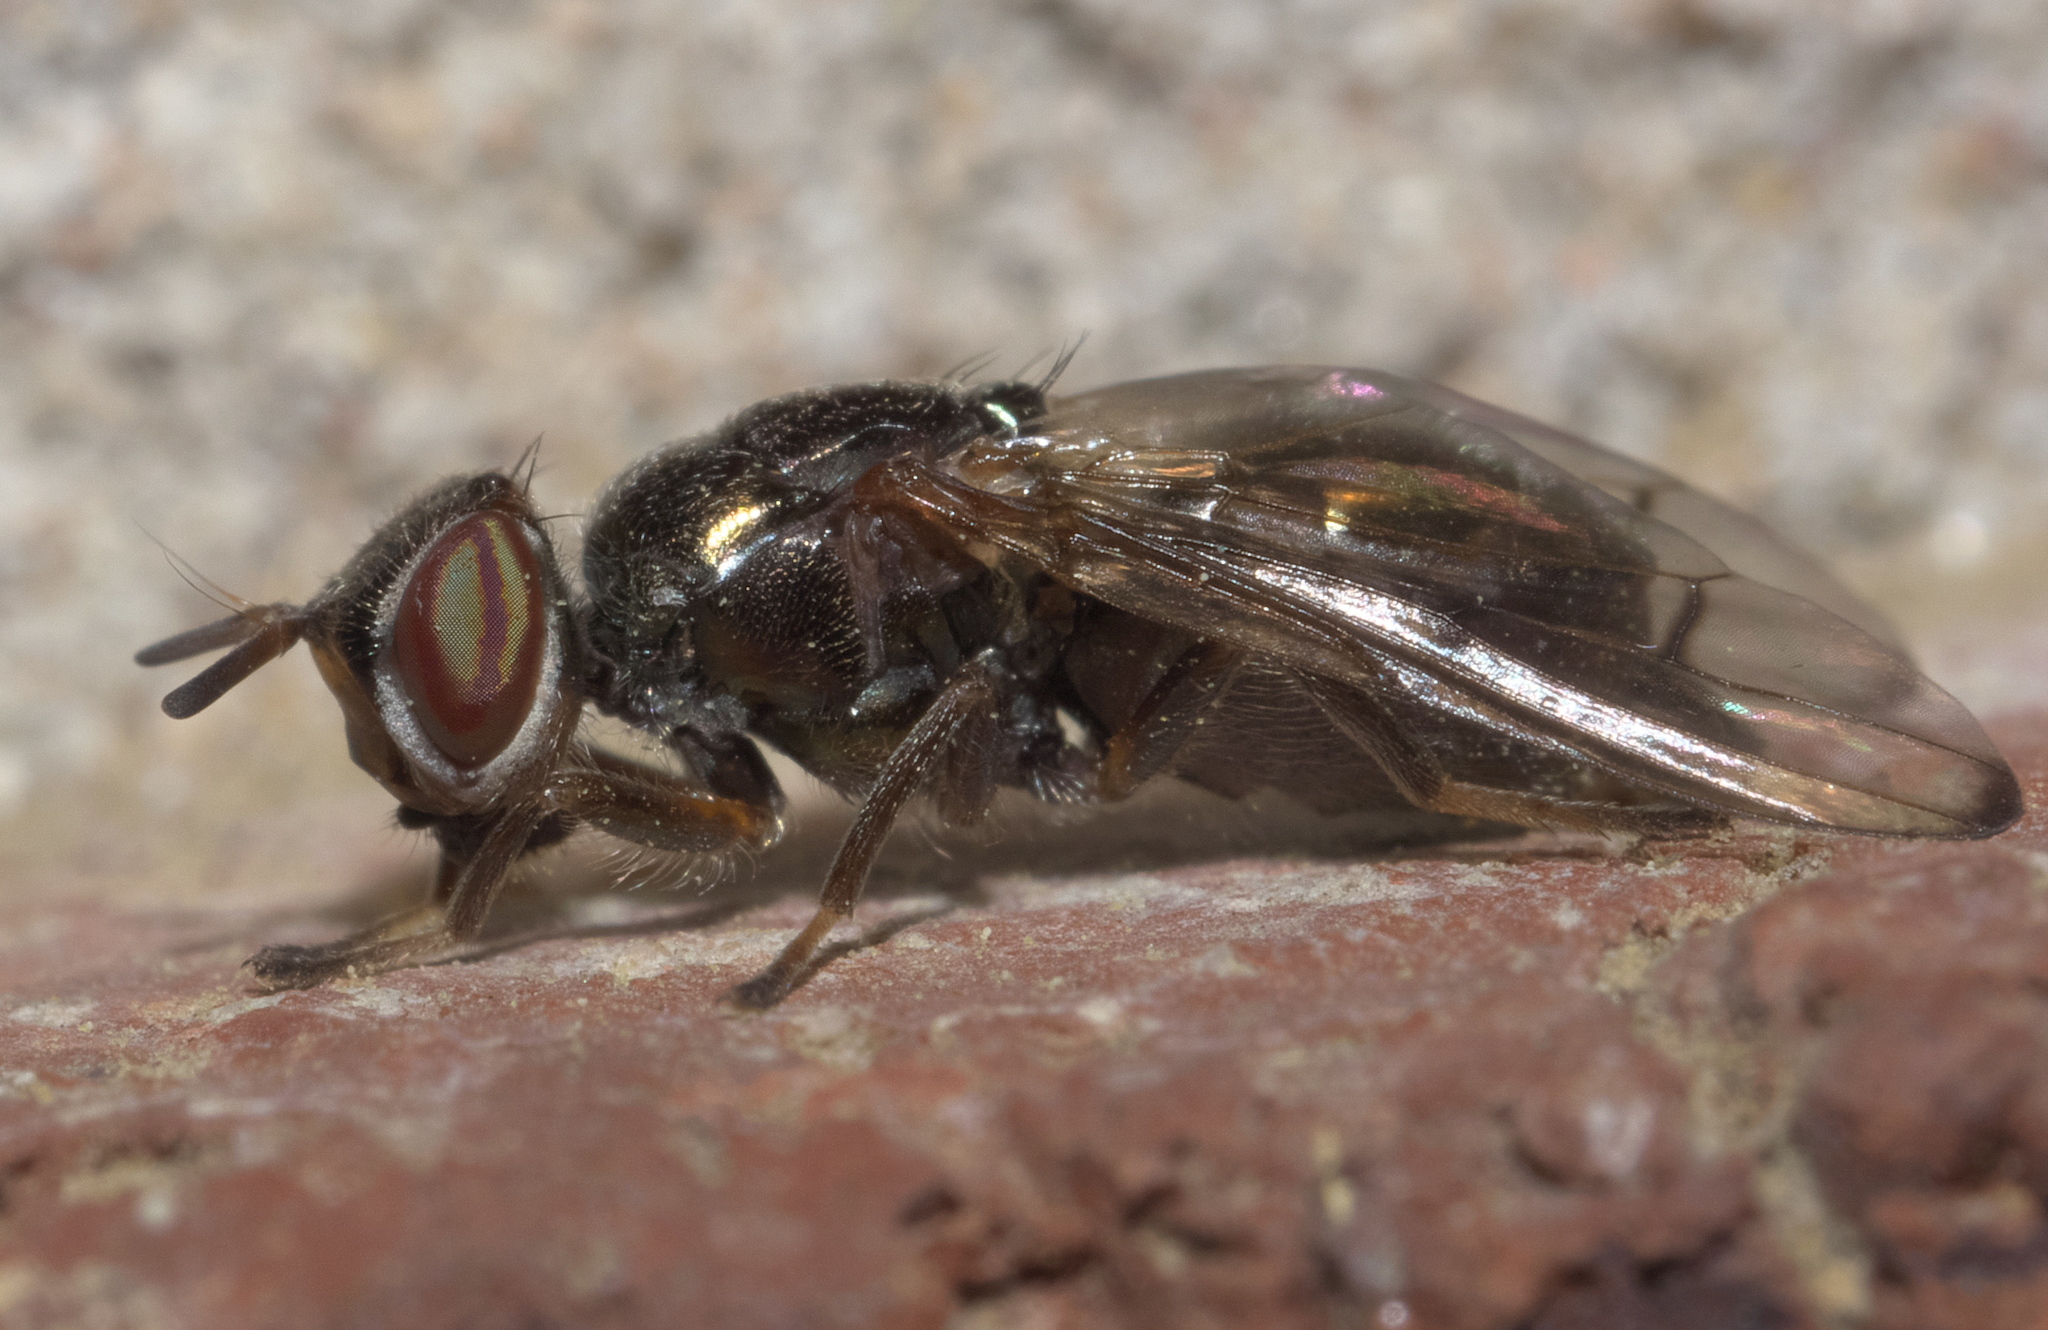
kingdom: Animalia
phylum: Arthropoda
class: Insecta
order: Diptera
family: Platystomatidae
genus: Senopterina
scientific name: Senopterina foxleei
